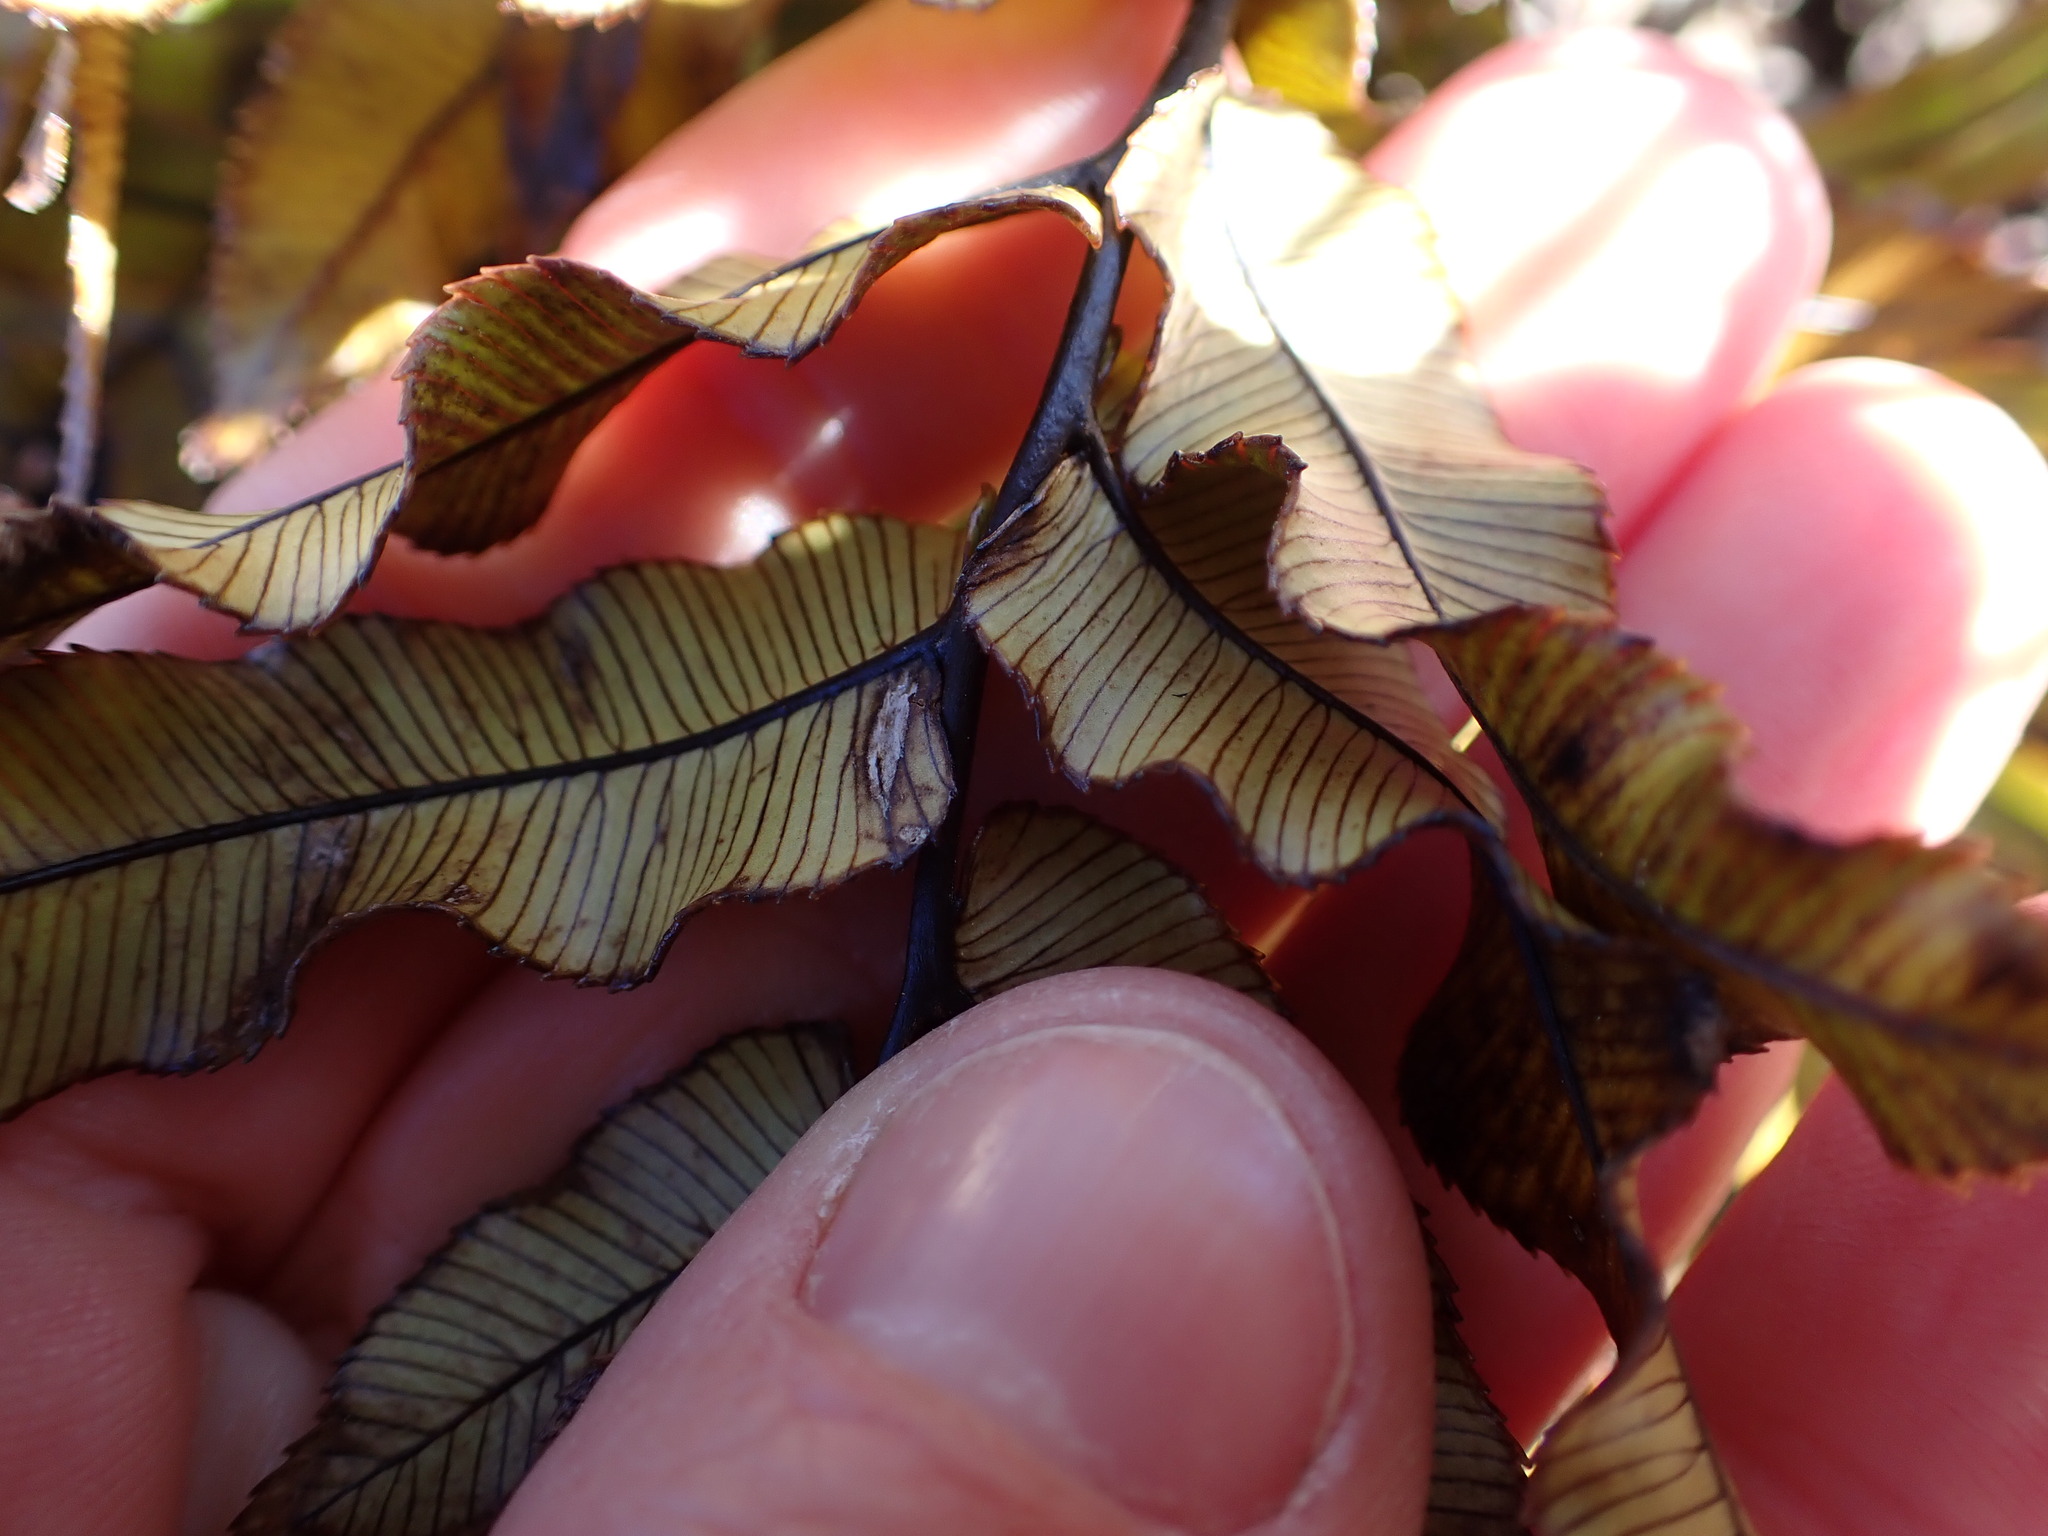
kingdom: Plantae
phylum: Tracheophyta
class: Polypodiopsida
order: Polypodiales
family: Blechnaceae
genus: Parablechnum
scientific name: Parablechnum montanum
